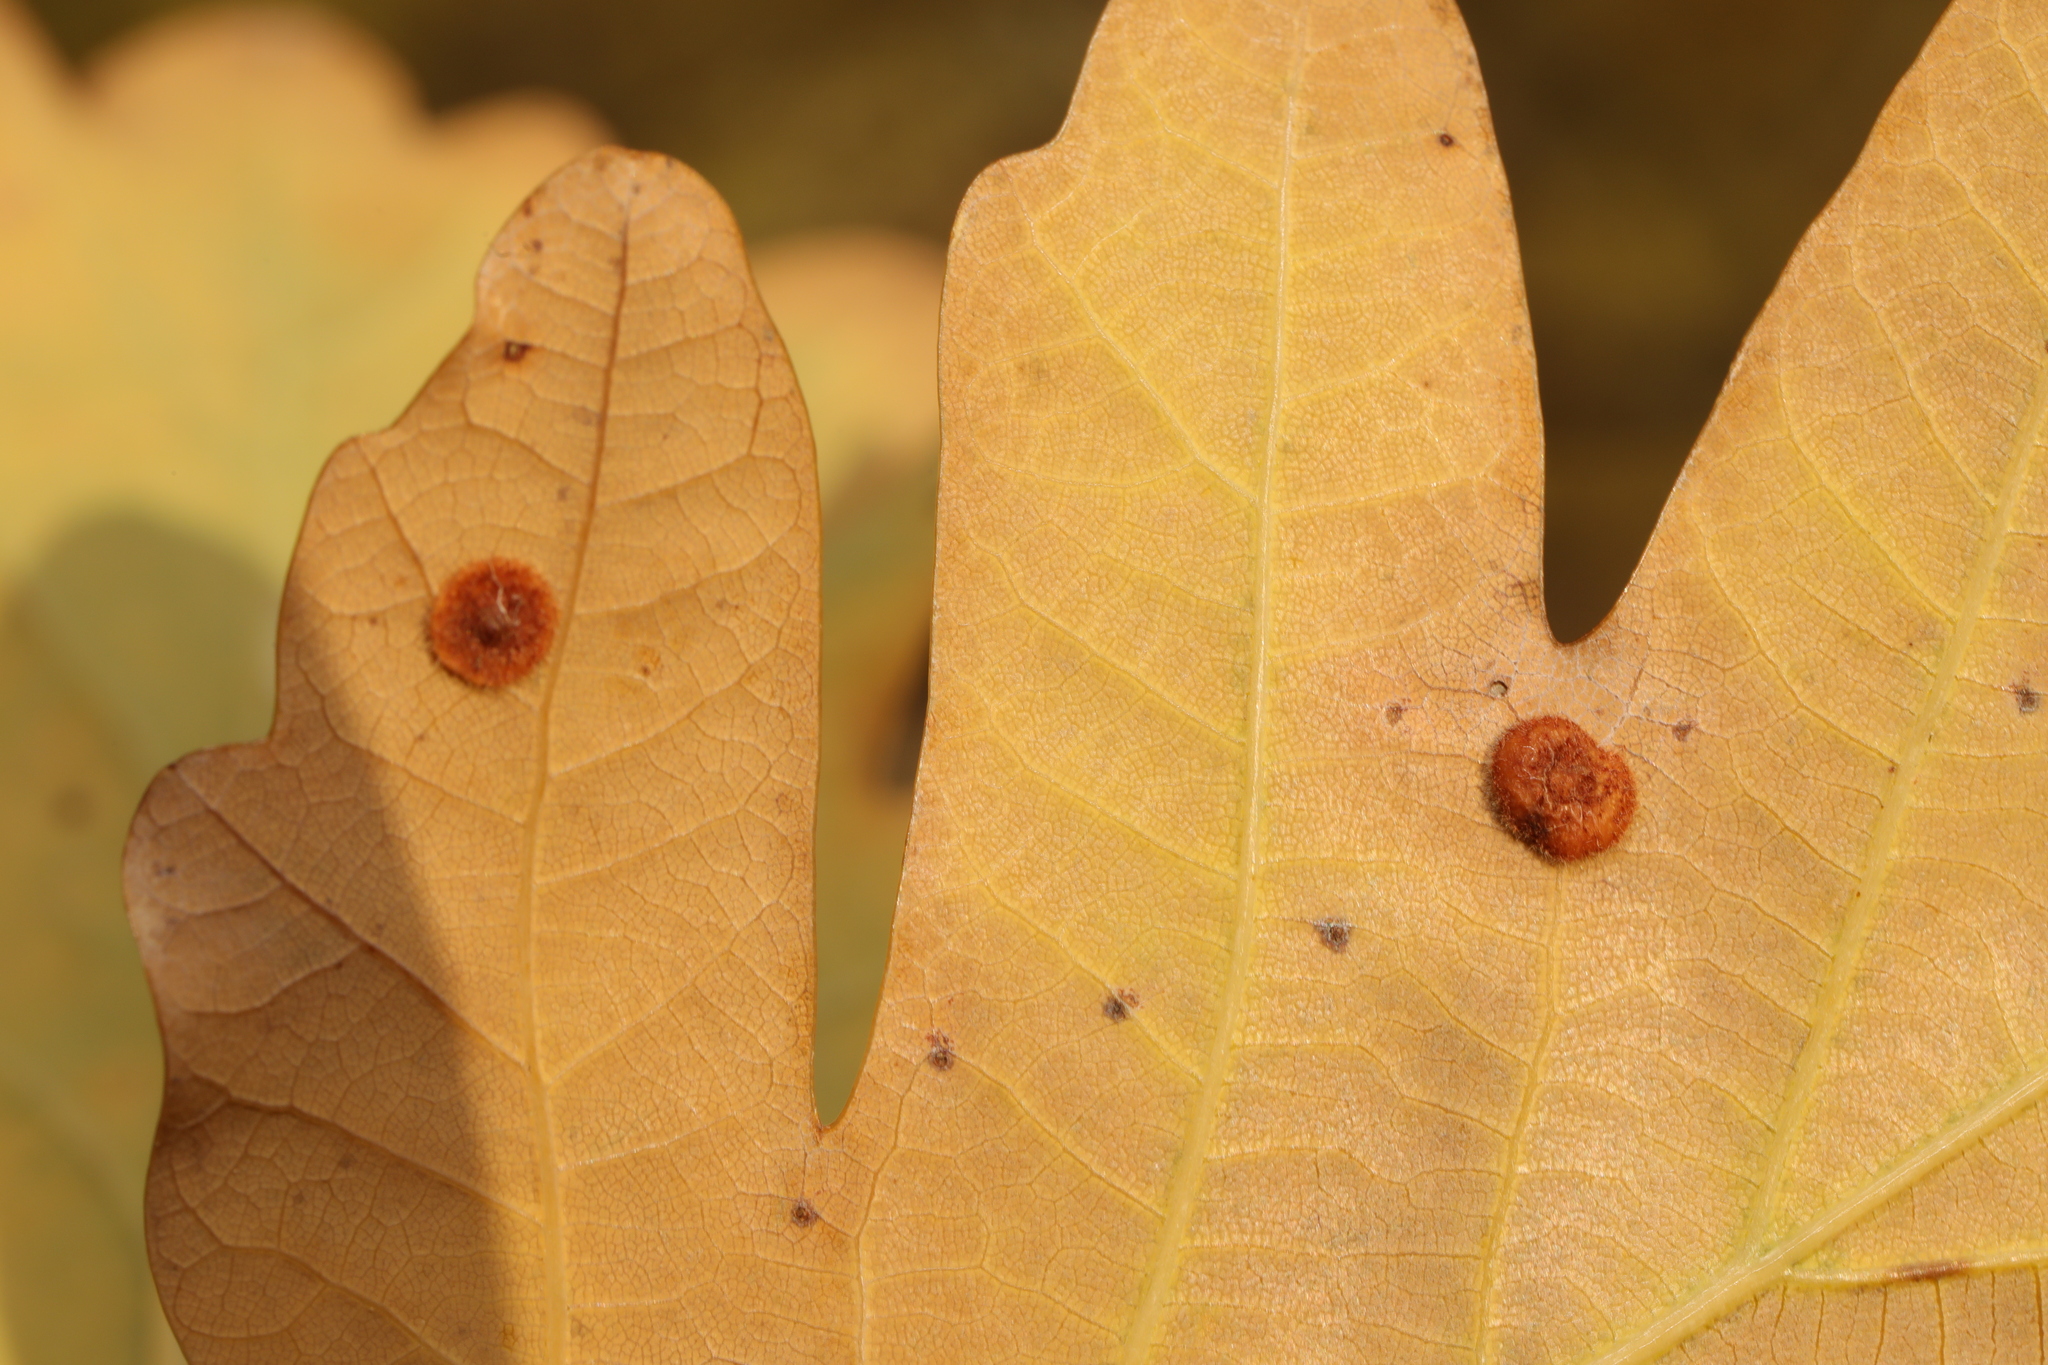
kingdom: Animalia
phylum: Arthropoda
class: Insecta
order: Hymenoptera
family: Cynipidae
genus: Neuroterus
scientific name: Neuroterus quercusbaccarum
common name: Common spangle gall
